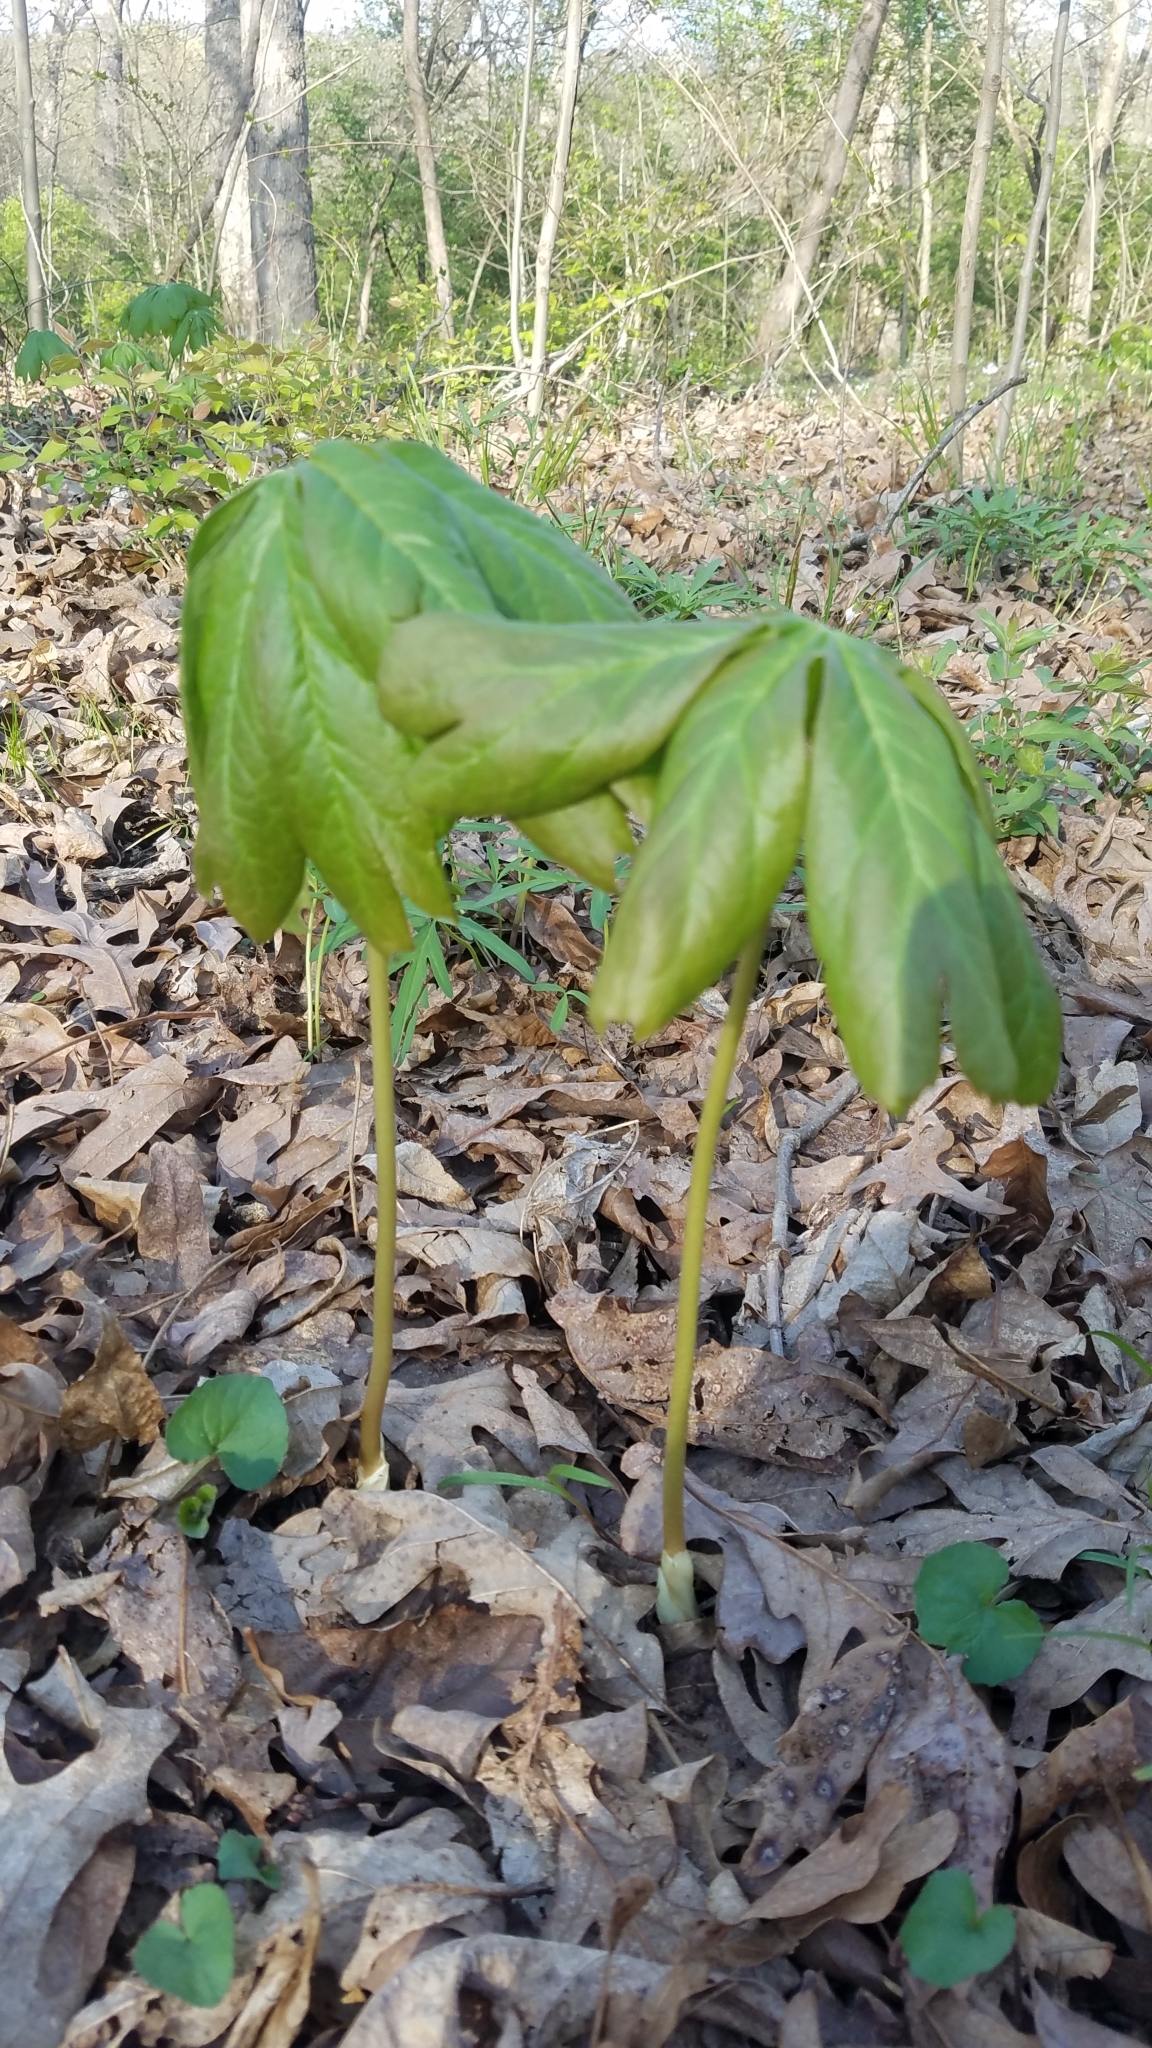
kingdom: Plantae
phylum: Tracheophyta
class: Magnoliopsida
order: Ranunculales
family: Berberidaceae
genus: Podophyllum
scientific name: Podophyllum peltatum
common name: Wild mandrake
